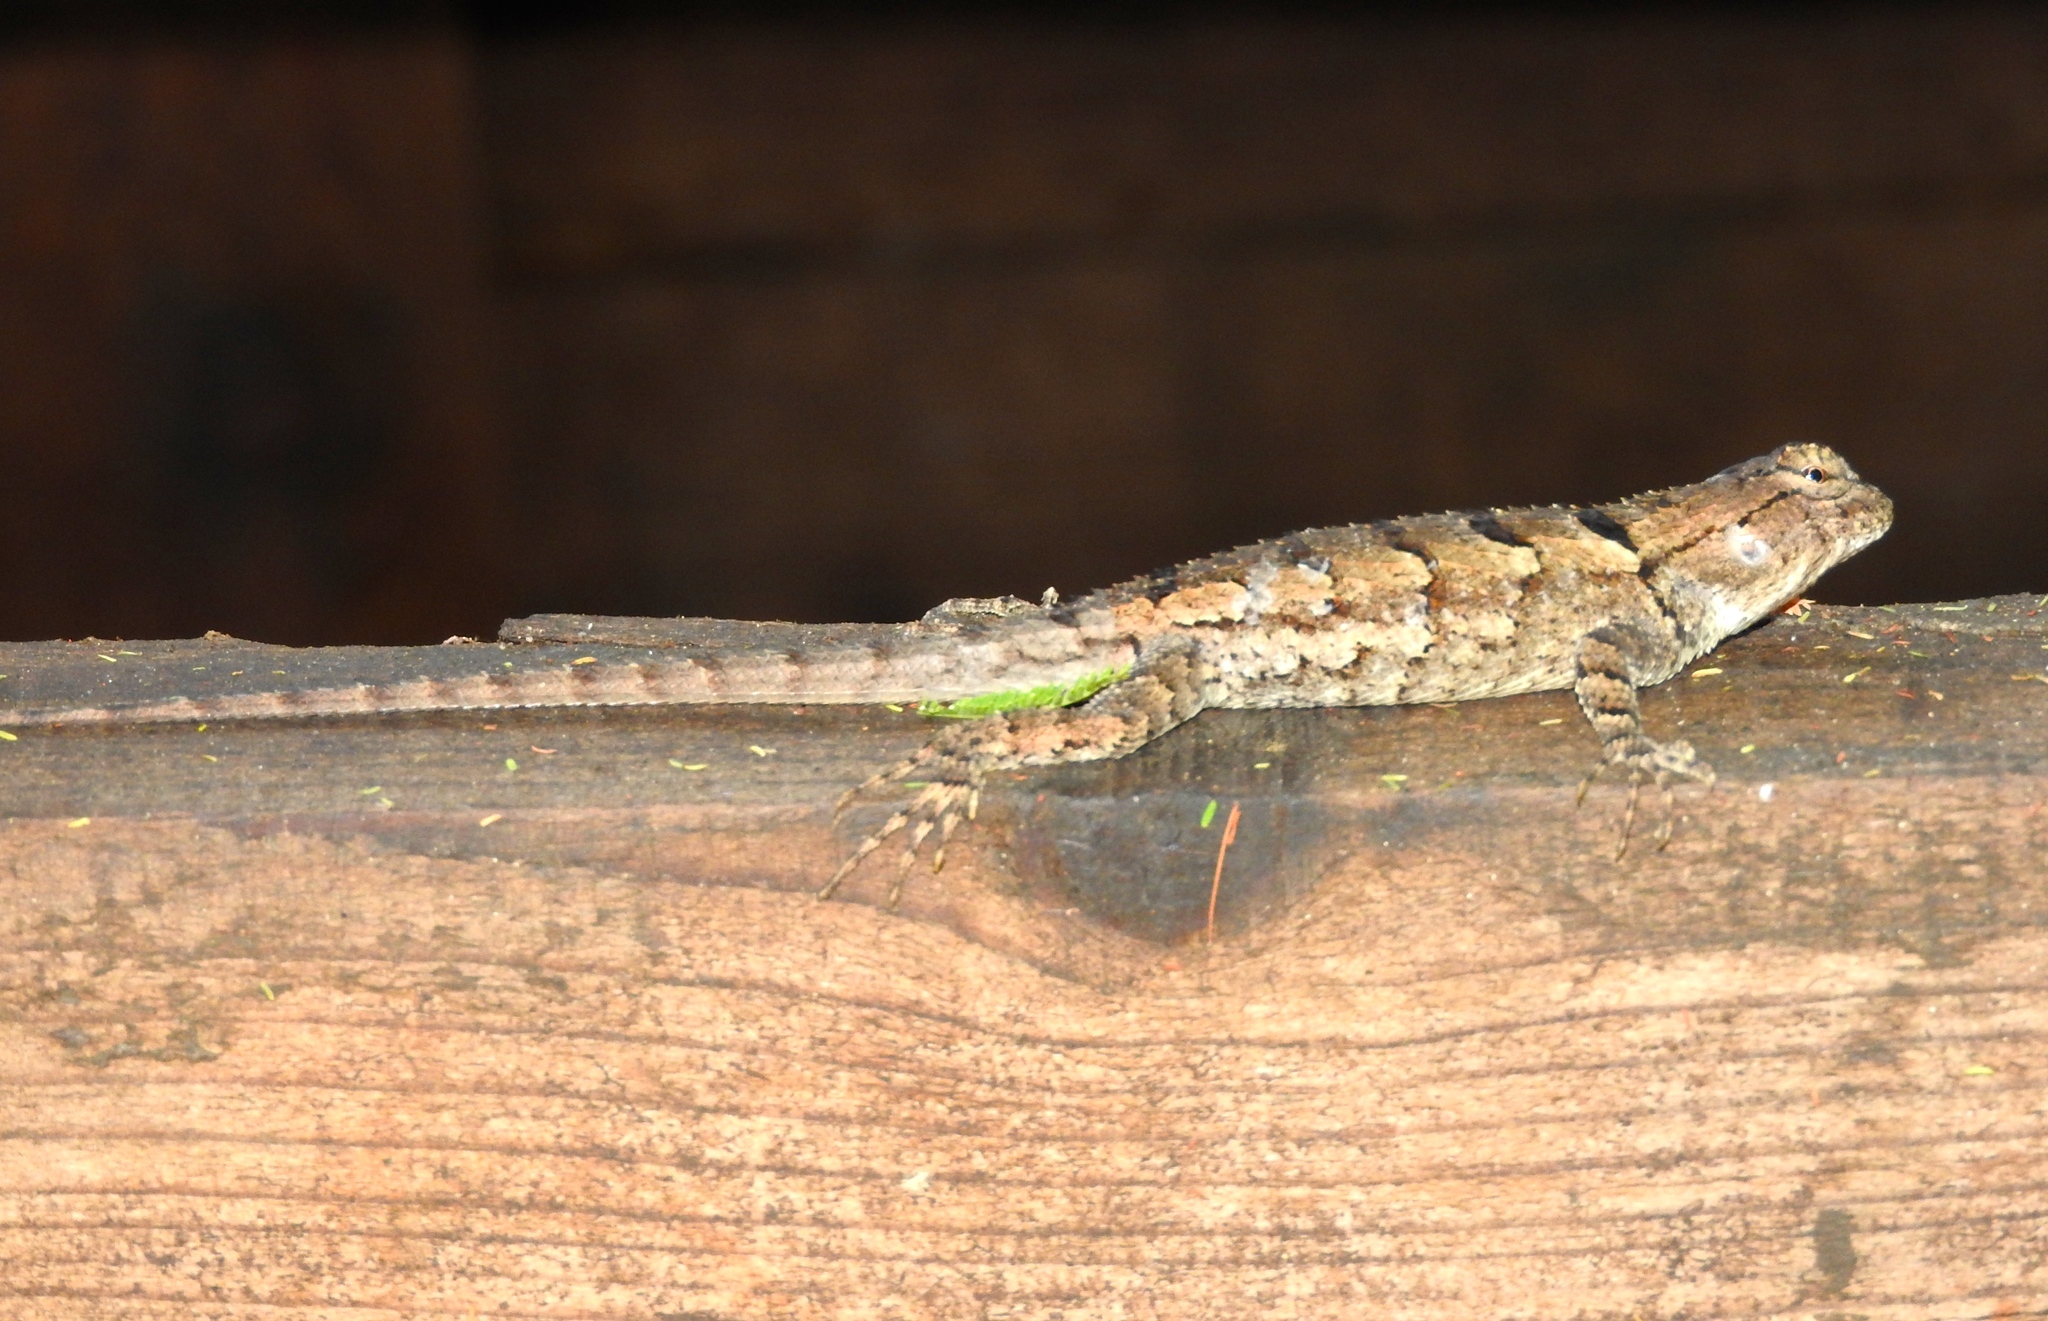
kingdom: Animalia
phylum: Chordata
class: Squamata
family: Phrynosomatidae
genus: Sceloporus
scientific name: Sceloporus nelsoni
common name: Nelson's spiny lizard
